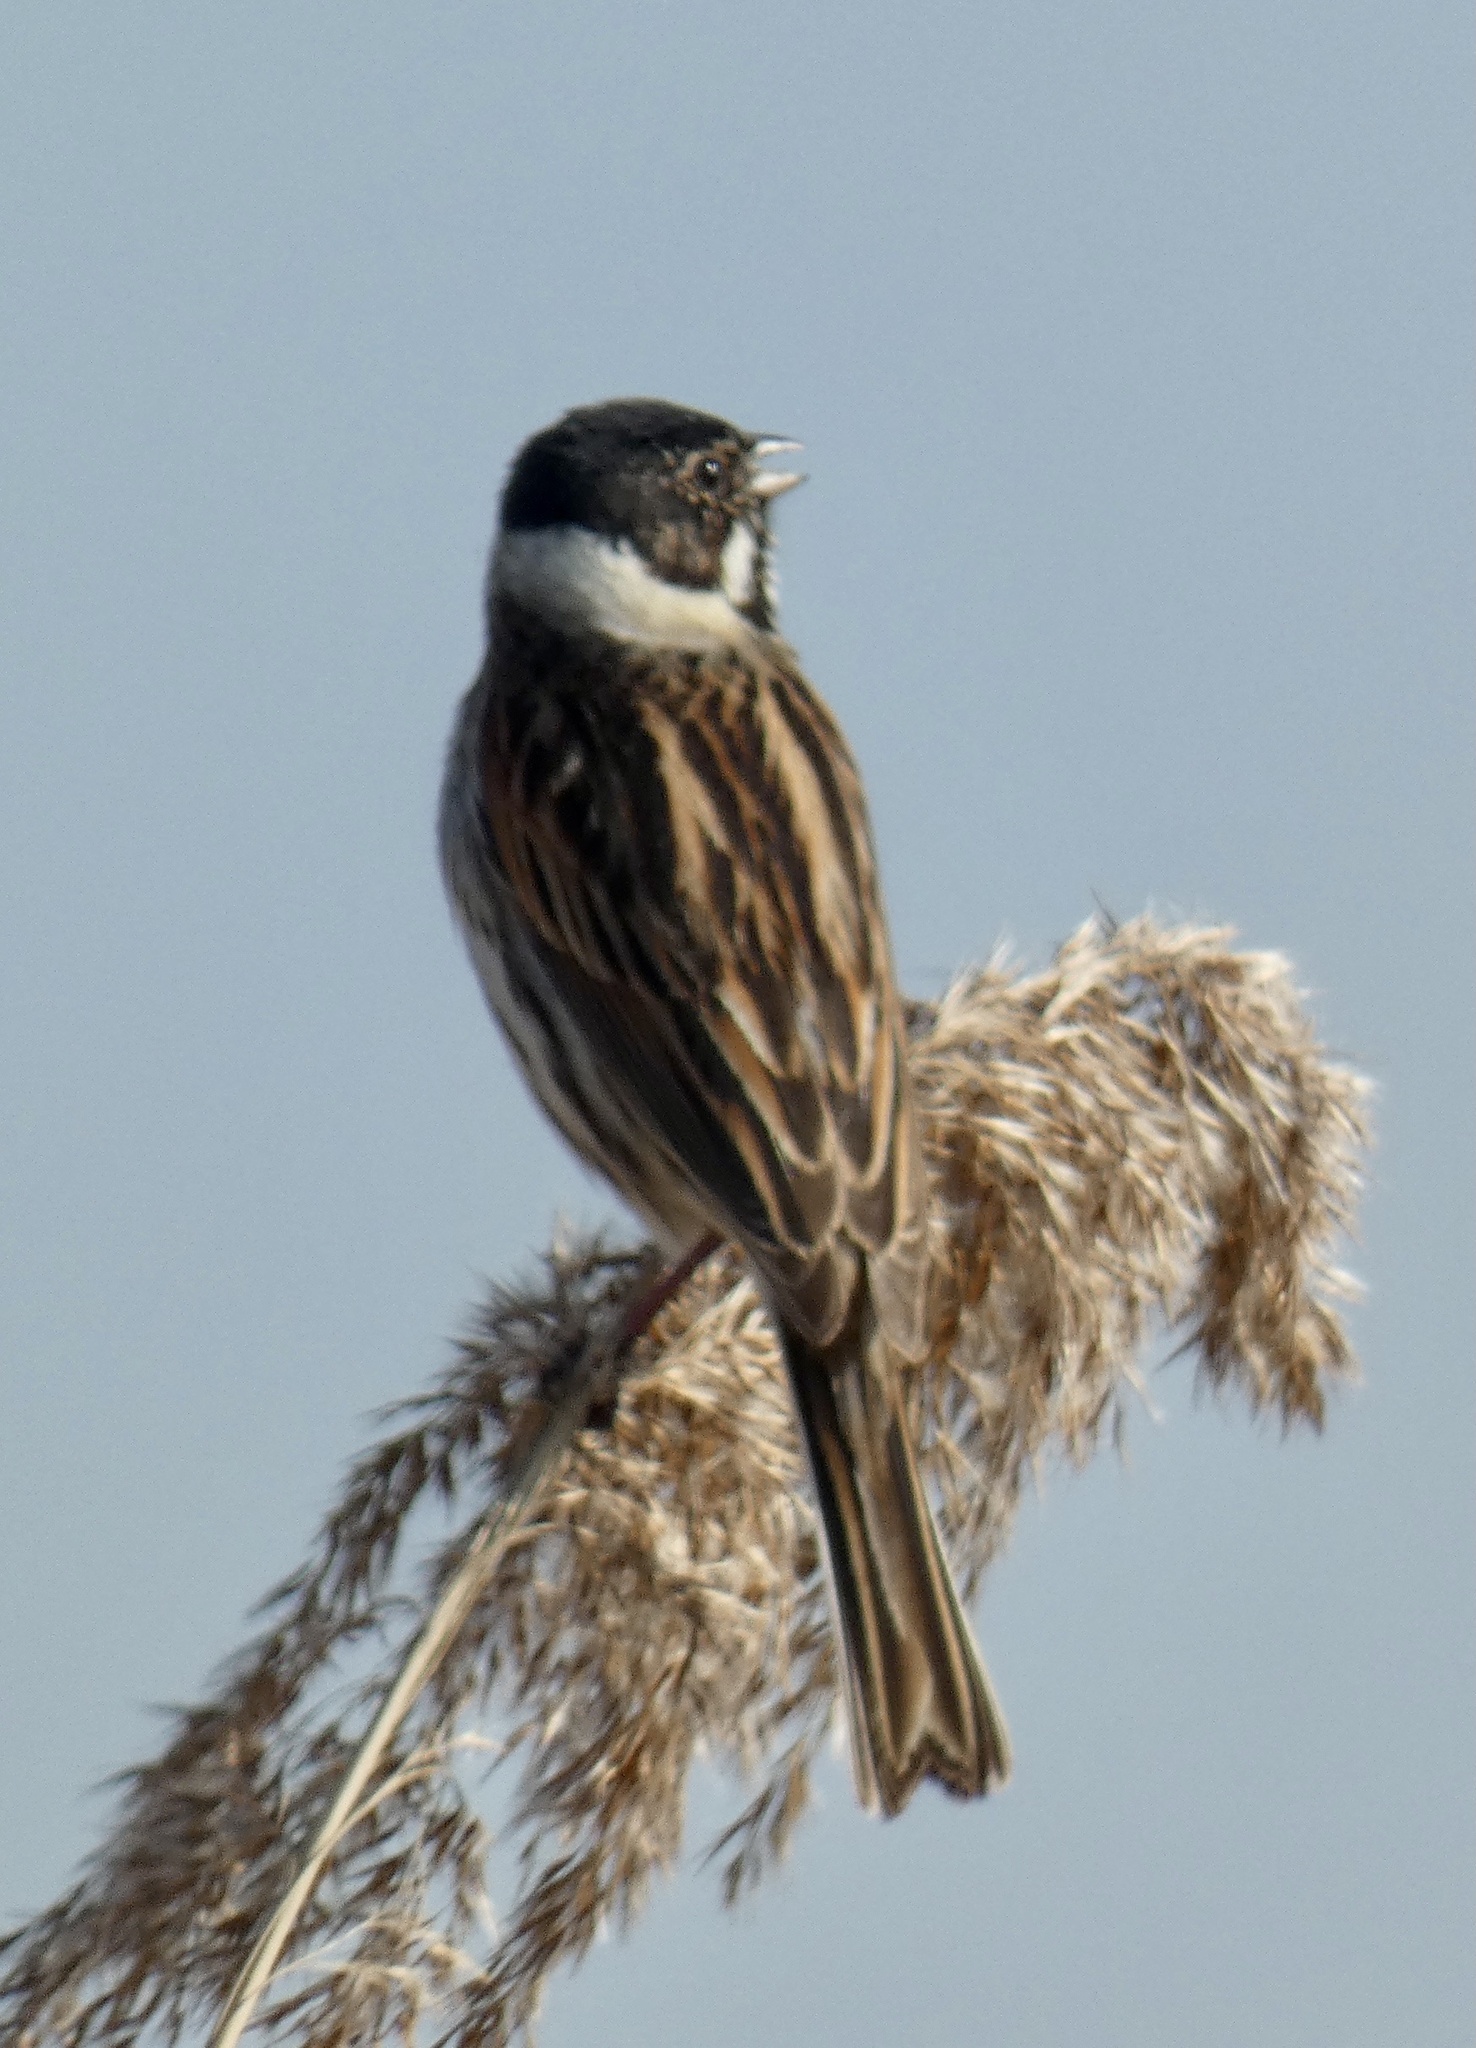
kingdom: Animalia
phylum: Chordata
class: Aves
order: Passeriformes
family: Emberizidae
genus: Emberiza
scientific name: Emberiza schoeniclus
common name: Reed bunting
